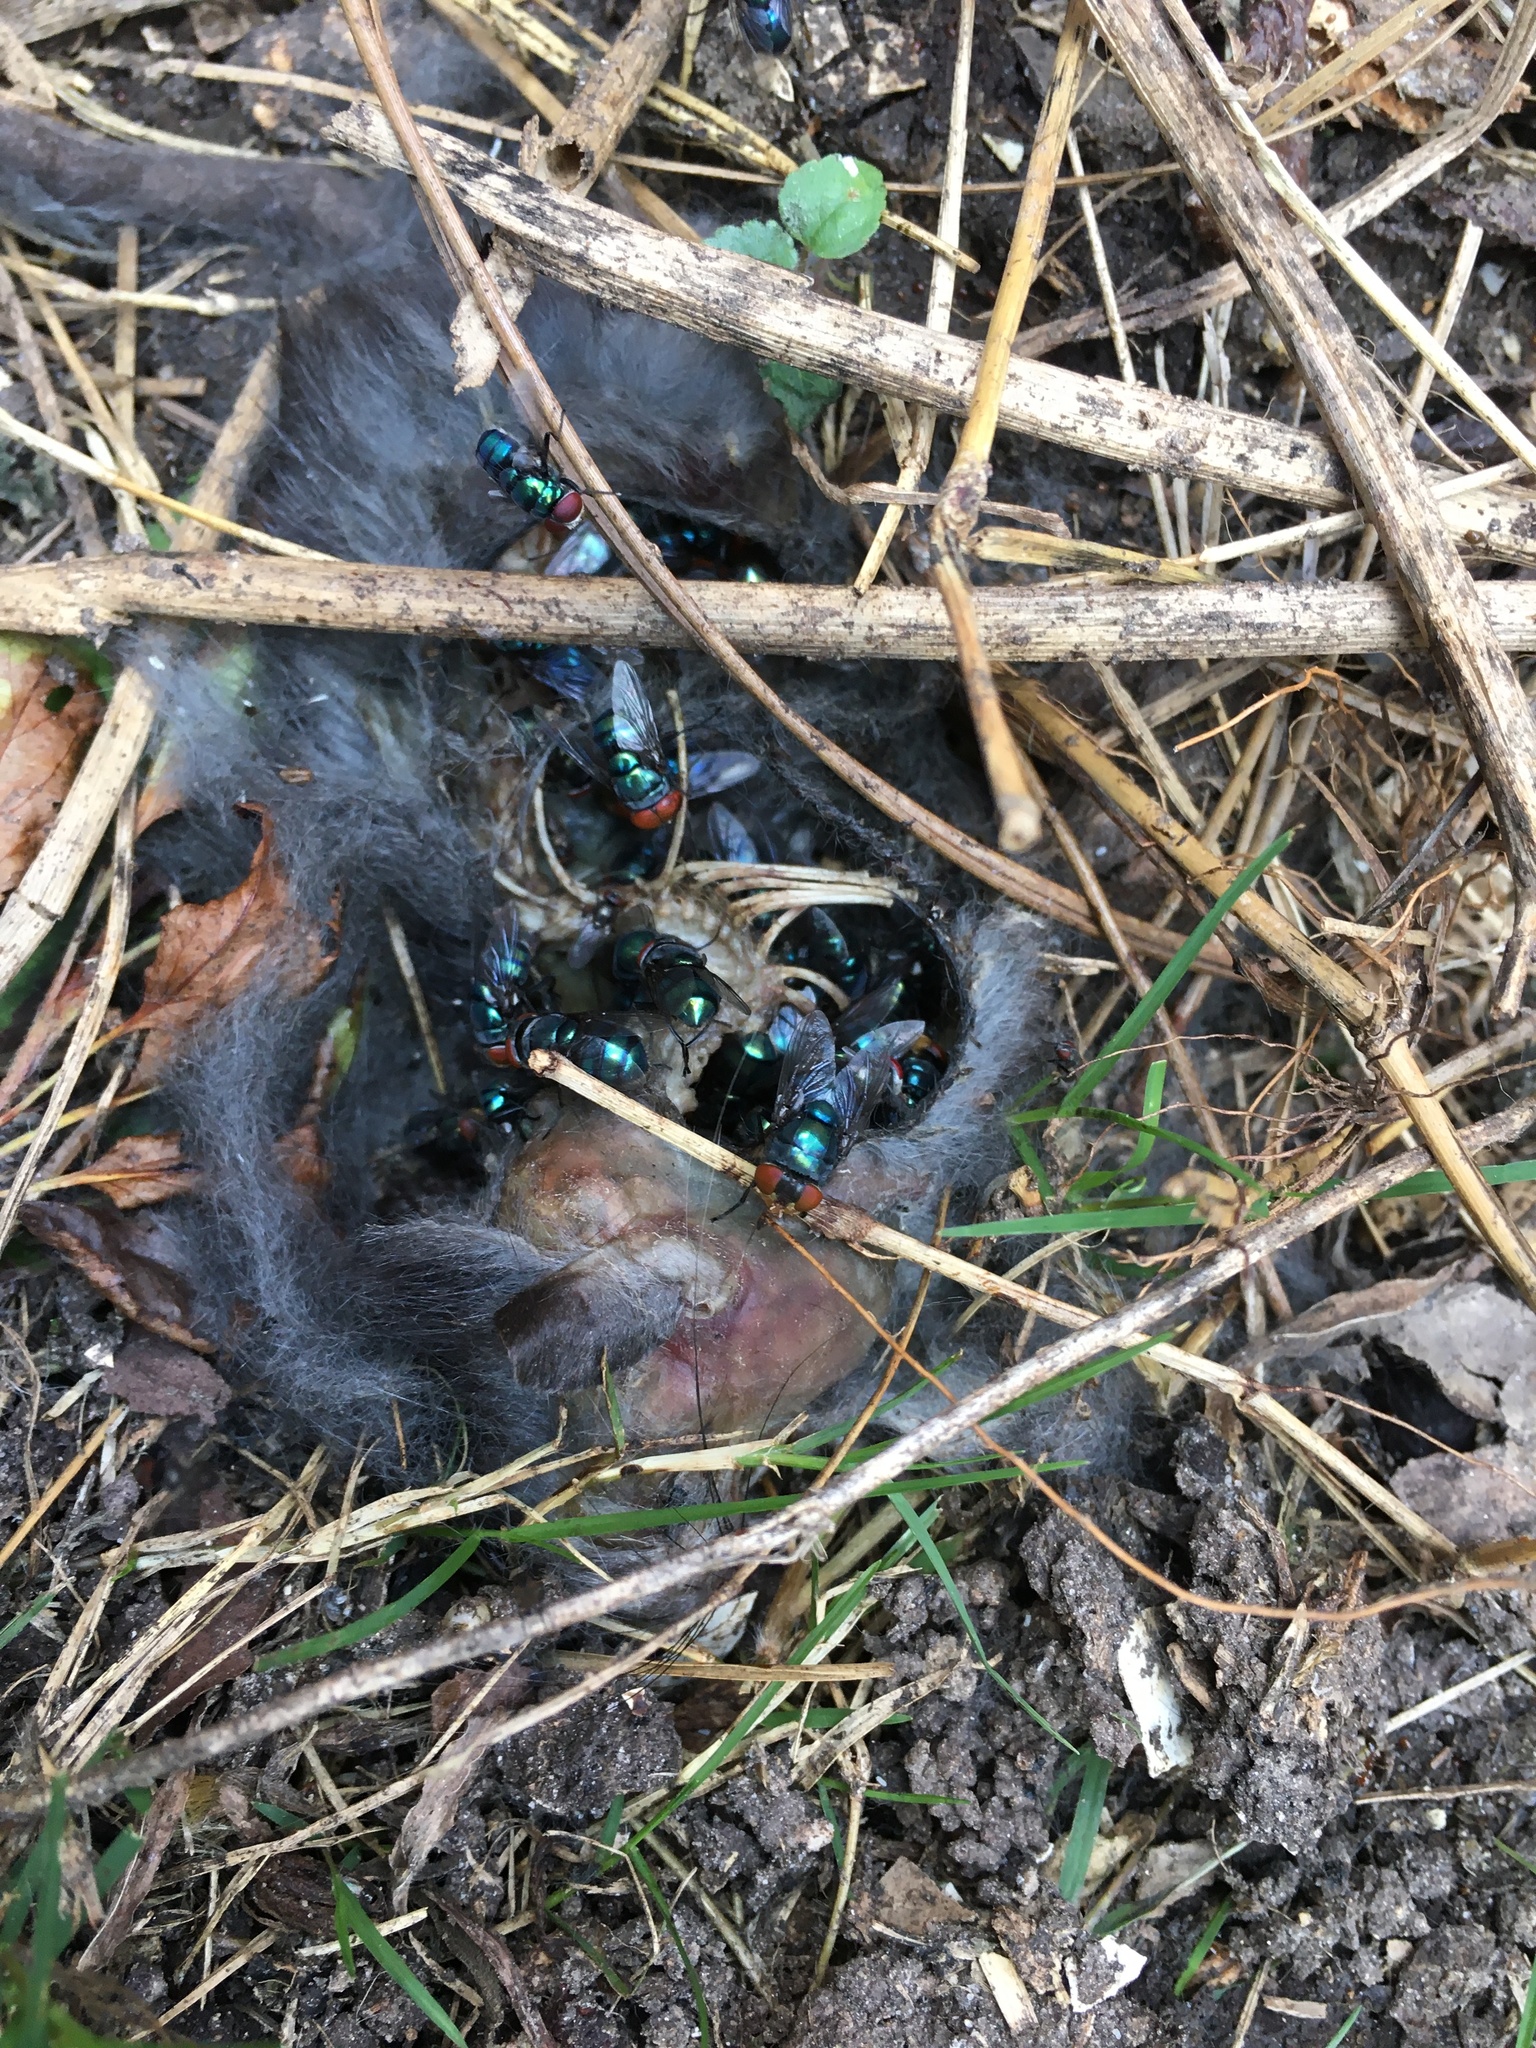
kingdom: Animalia
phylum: Arthropoda
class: Insecta
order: Diptera
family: Calliphoridae
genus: Chrysomya
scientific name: Chrysomya megacephala
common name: Blow fly
